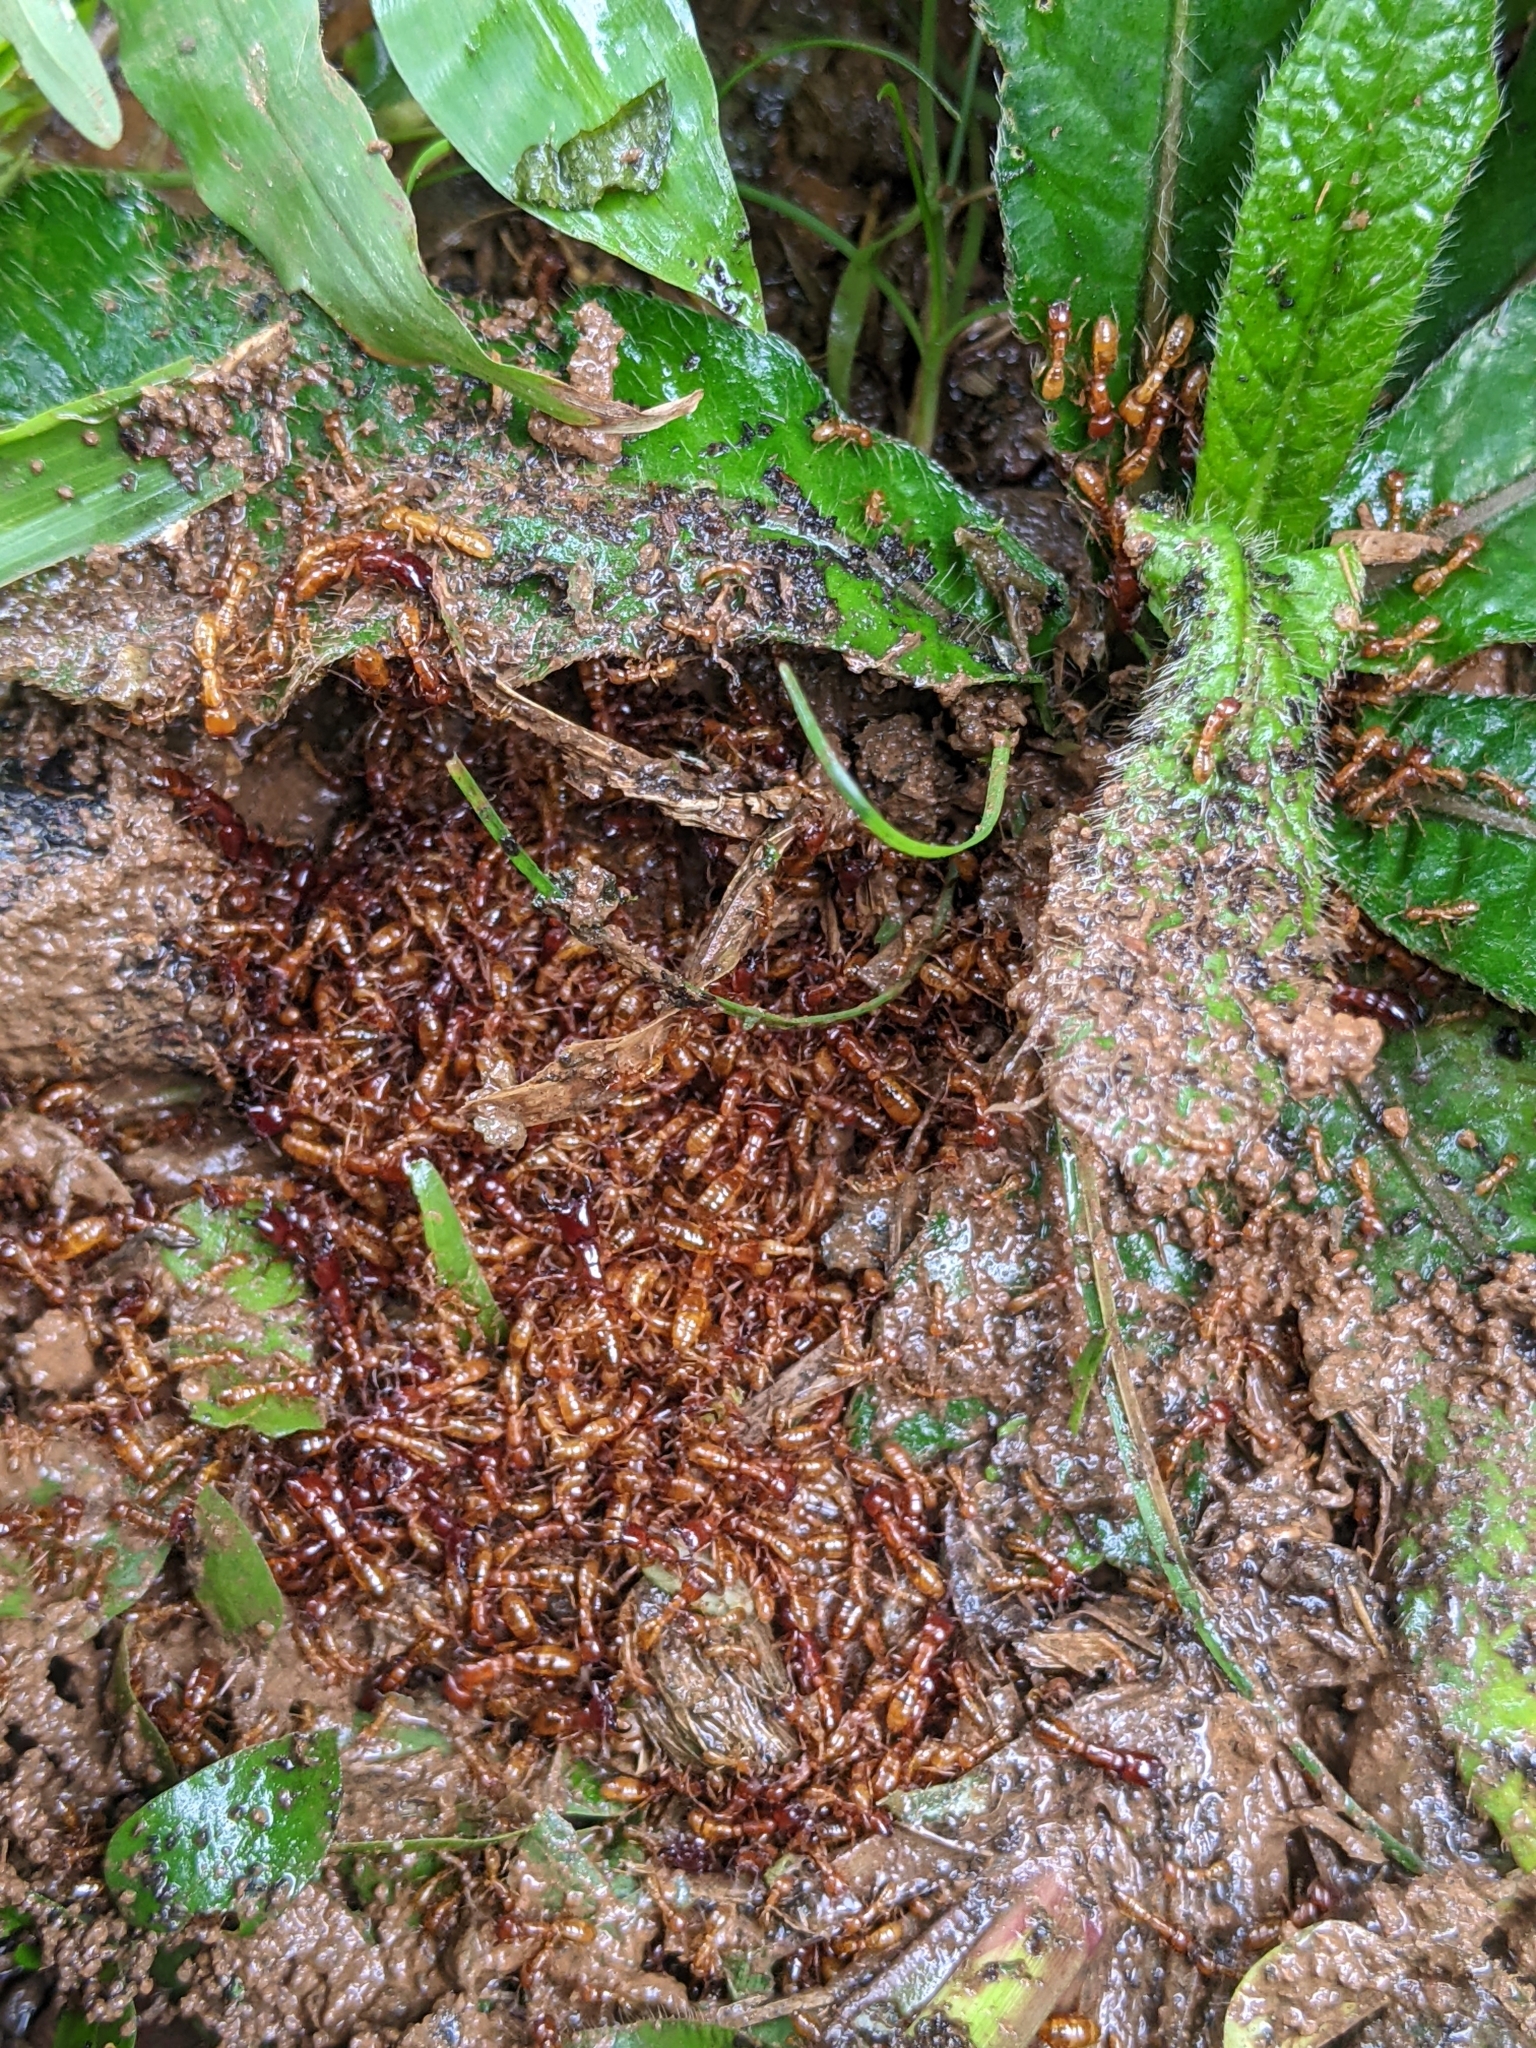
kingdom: Animalia
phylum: Arthropoda
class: Insecta
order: Hymenoptera
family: Formicidae
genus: Dorylus
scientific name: Dorylus laevigatus
